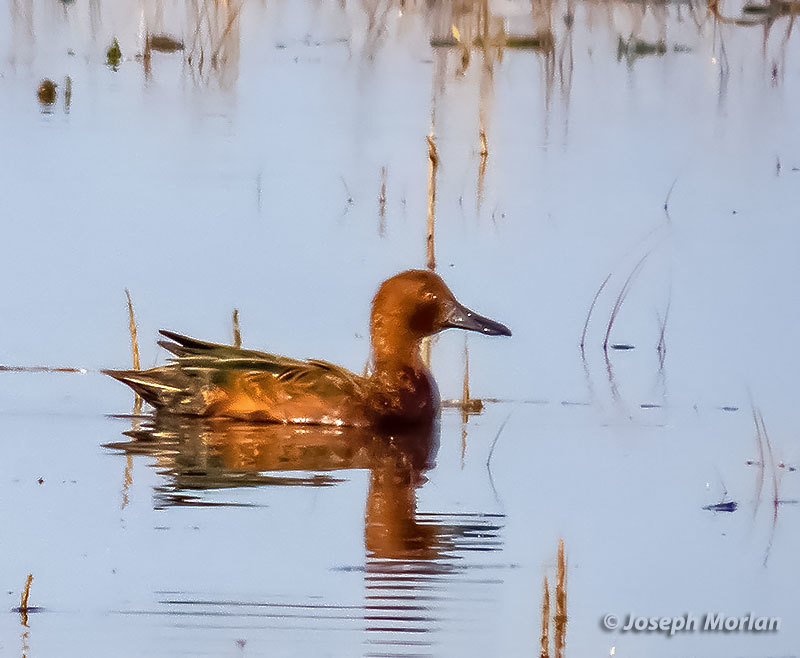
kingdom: Animalia
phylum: Chordata
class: Aves
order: Anseriformes
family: Anatidae
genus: Spatula
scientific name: Spatula cyanoptera
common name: Cinnamon teal
